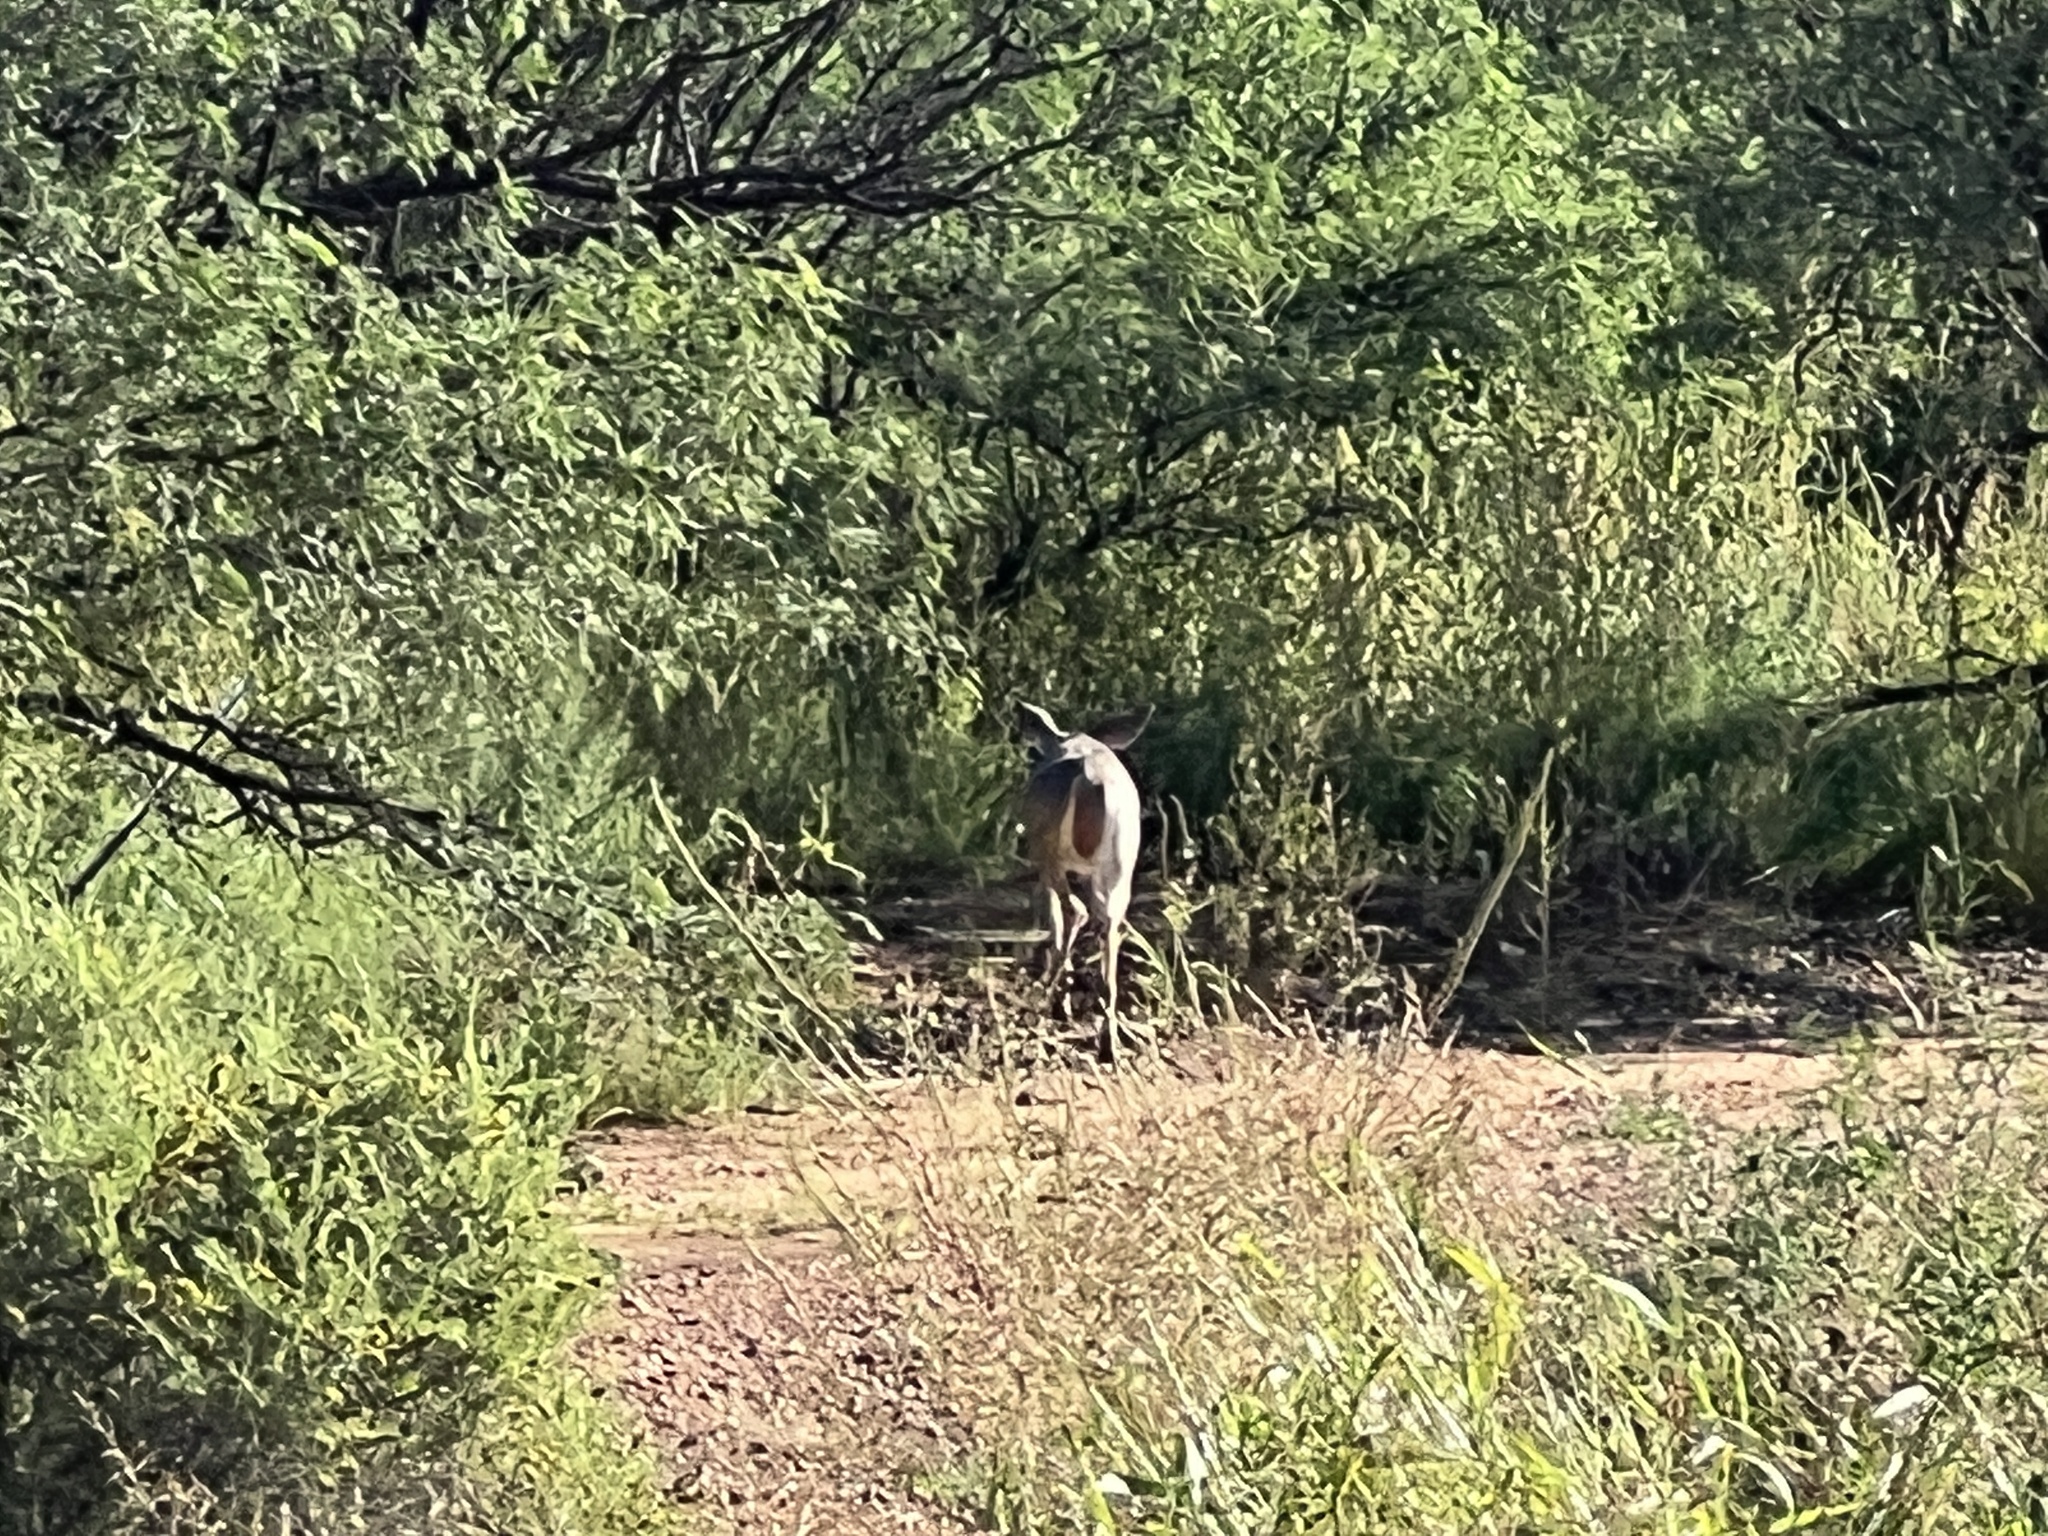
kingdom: Animalia
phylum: Chordata
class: Mammalia
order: Artiodactyla
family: Cervidae
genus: Odocoileus
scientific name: Odocoileus virginianus
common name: White-tailed deer
